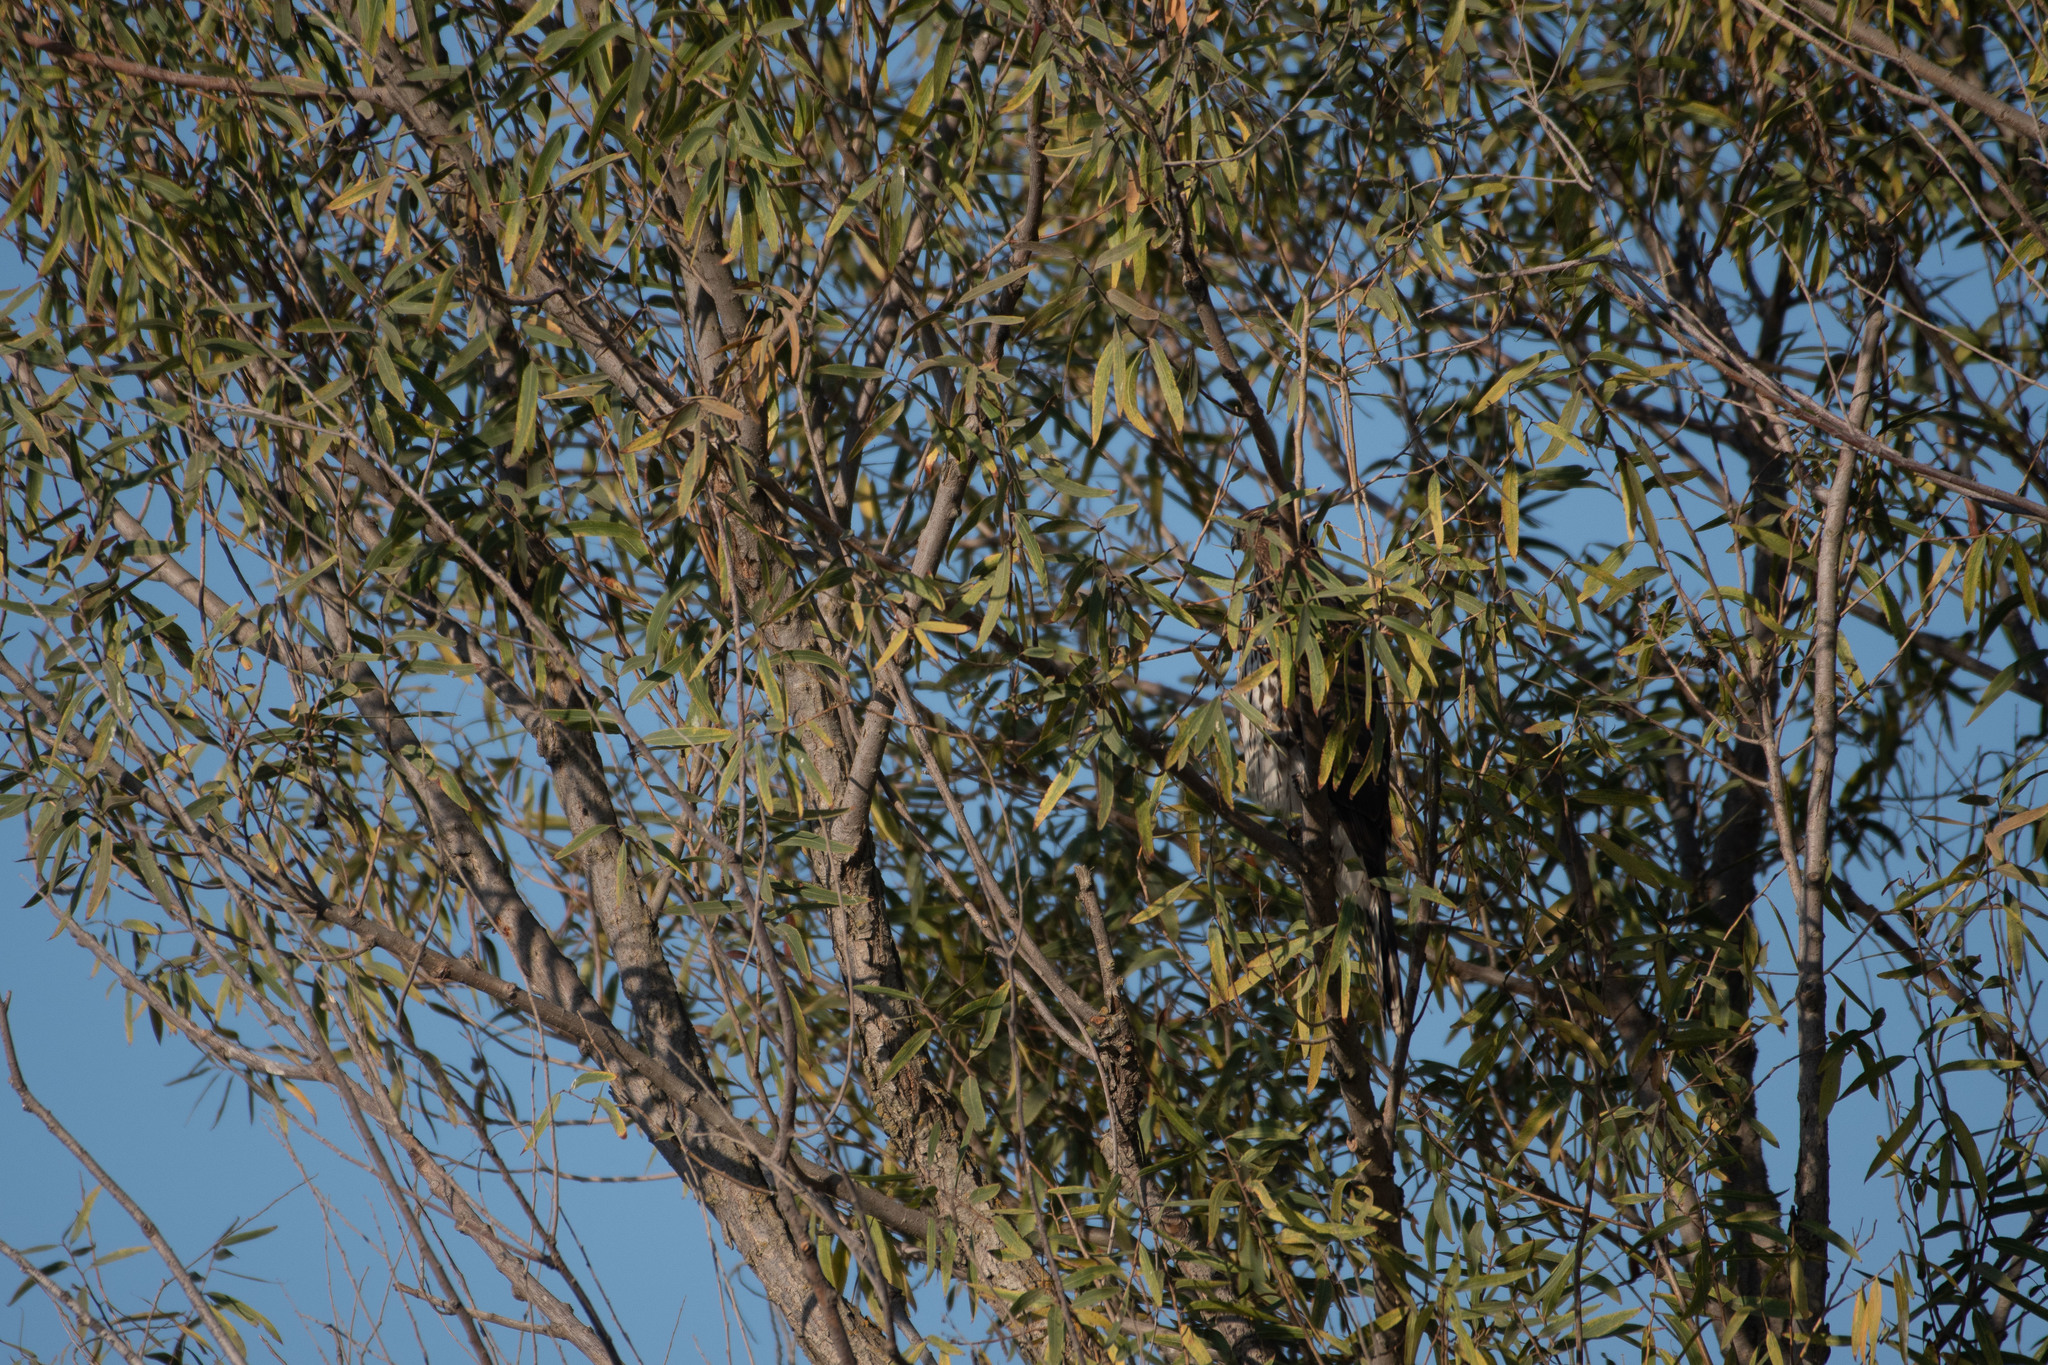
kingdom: Animalia
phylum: Chordata
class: Aves
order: Accipitriformes
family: Accipitridae
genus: Accipiter
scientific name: Accipiter cooperii
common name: Cooper's hawk
